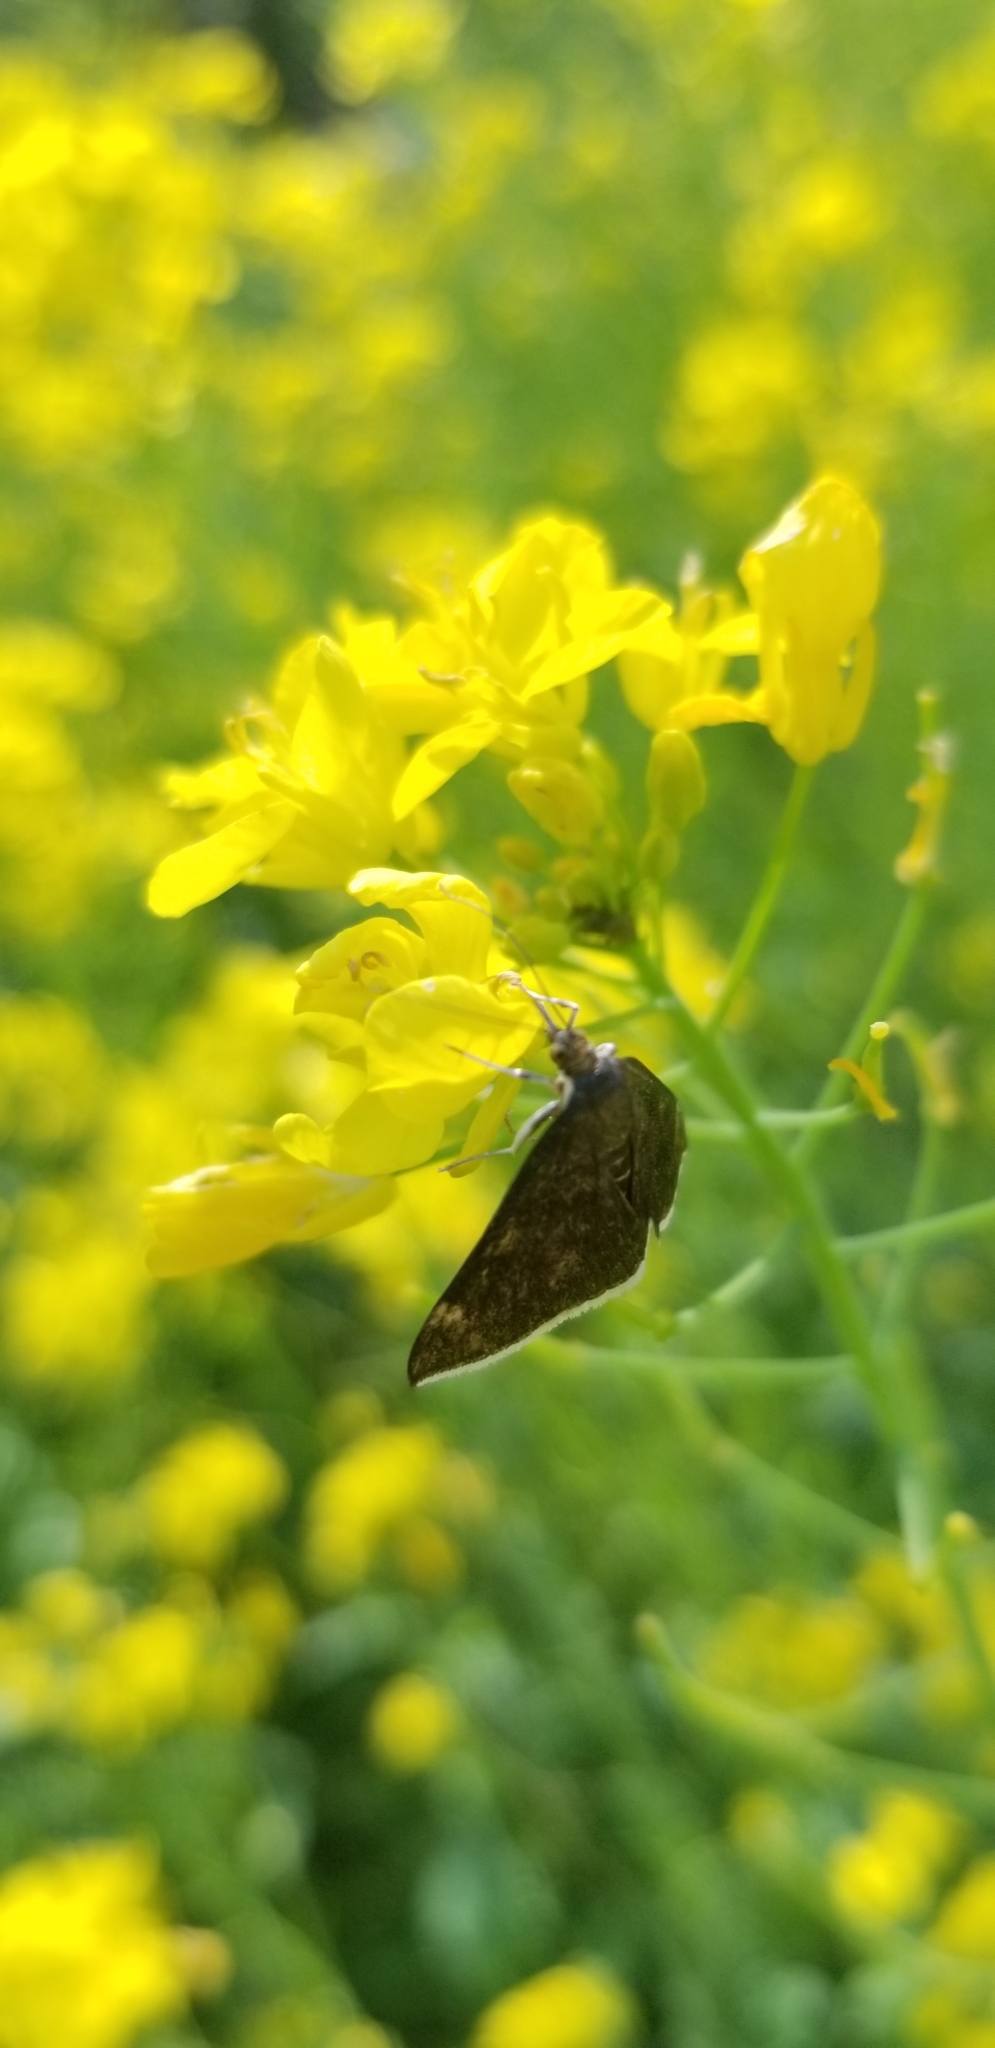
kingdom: Animalia
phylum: Arthropoda
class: Insecta
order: Lepidoptera
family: Crambidae
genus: Pyrausta
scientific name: Pyrausta niveicilialis
